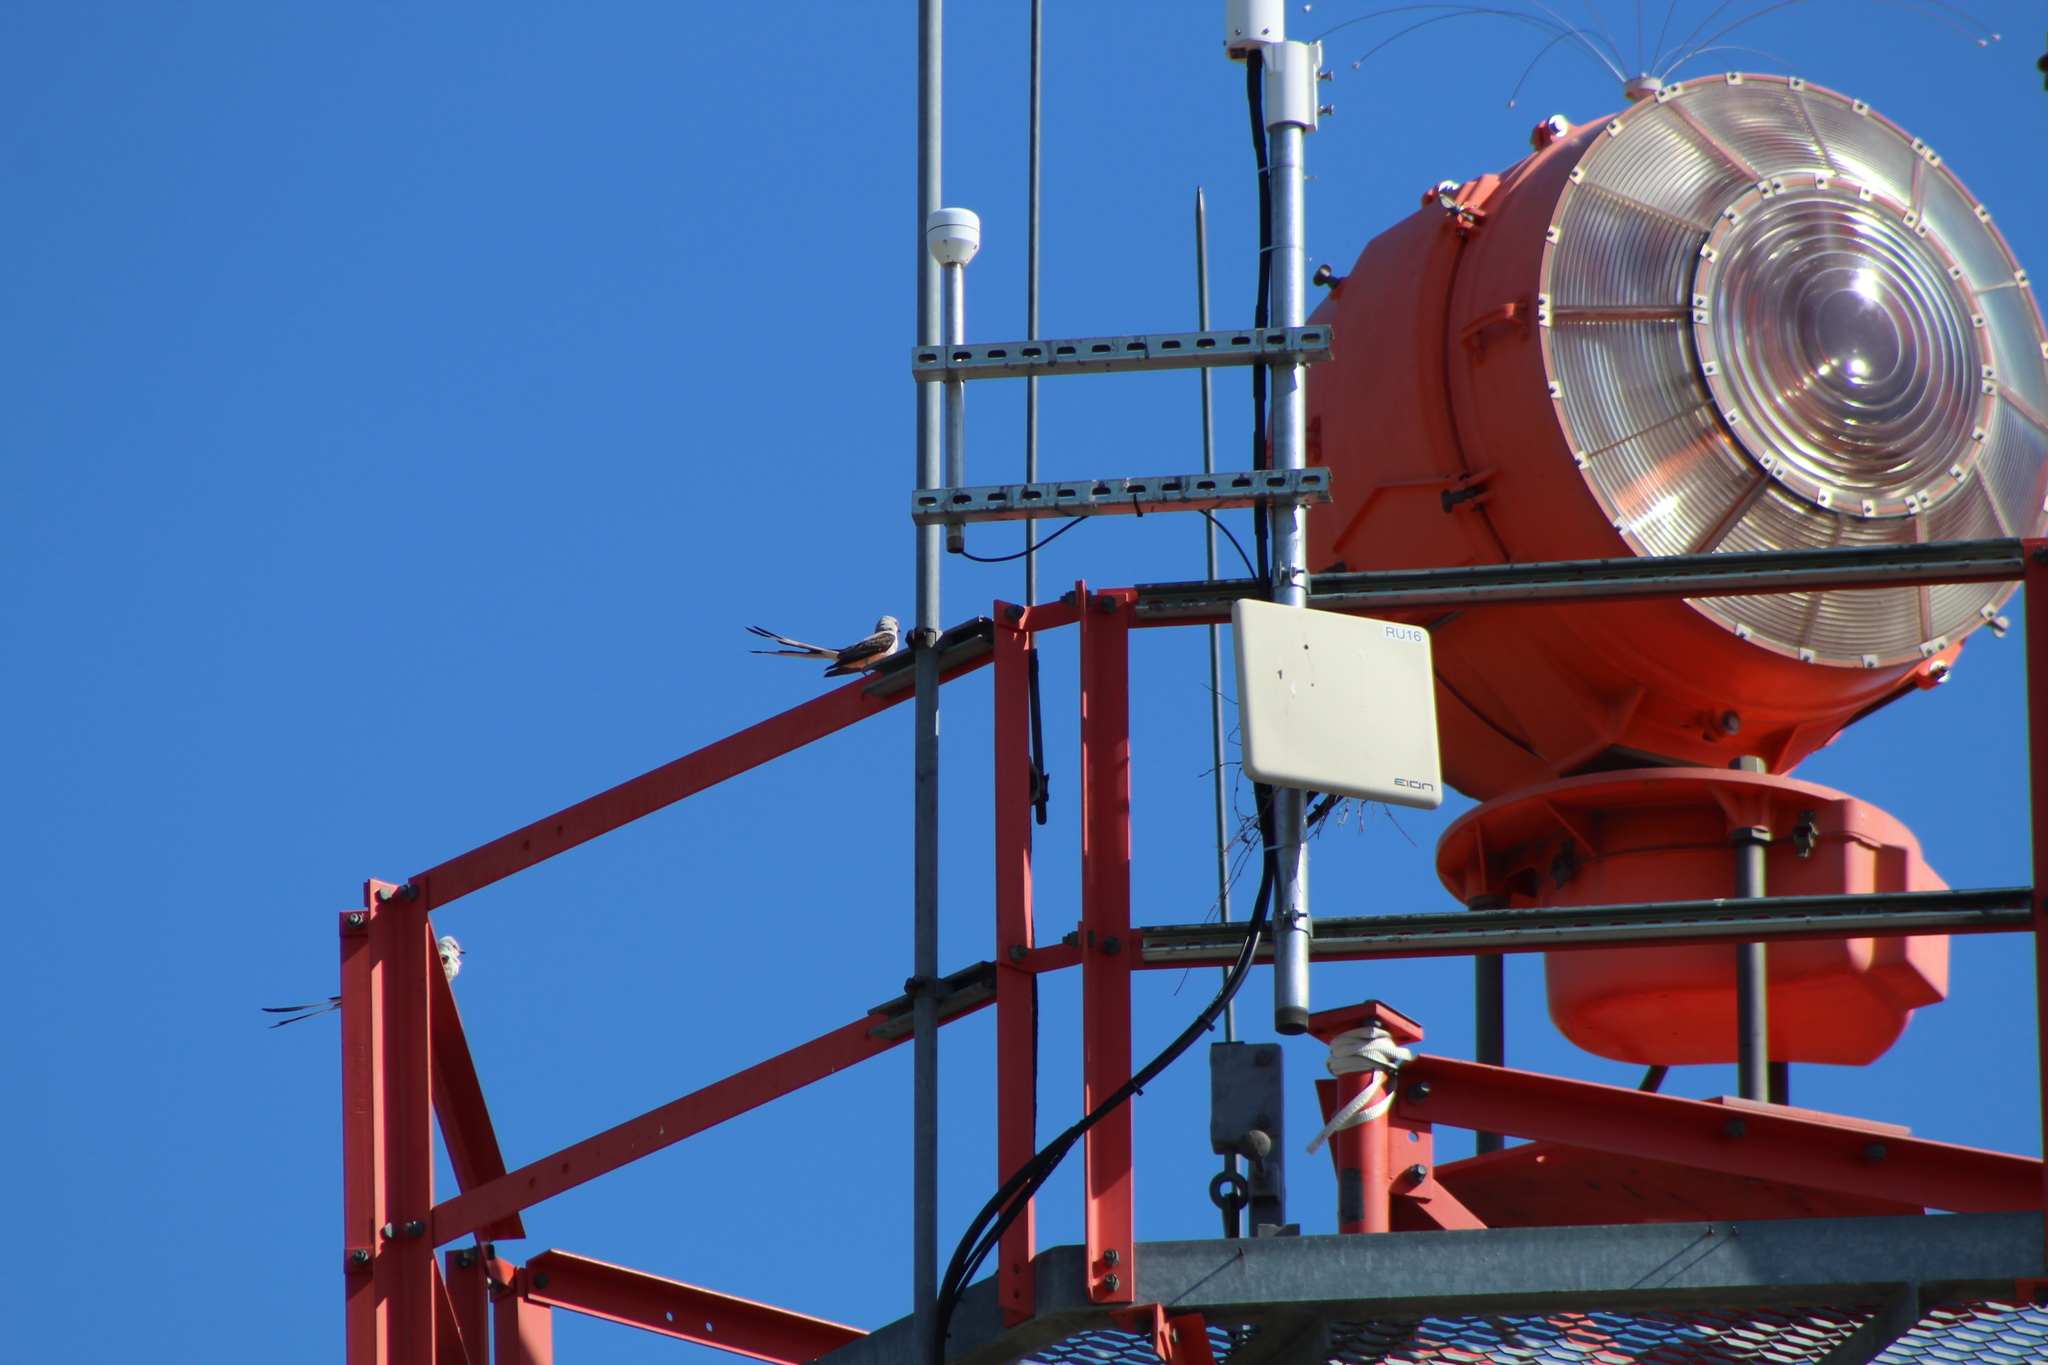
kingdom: Animalia
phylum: Chordata
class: Aves
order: Passeriformes
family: Tyrannidae
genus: Tyrannus
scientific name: Tyrannus forficatus
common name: Scissor-tailed flycatcher
